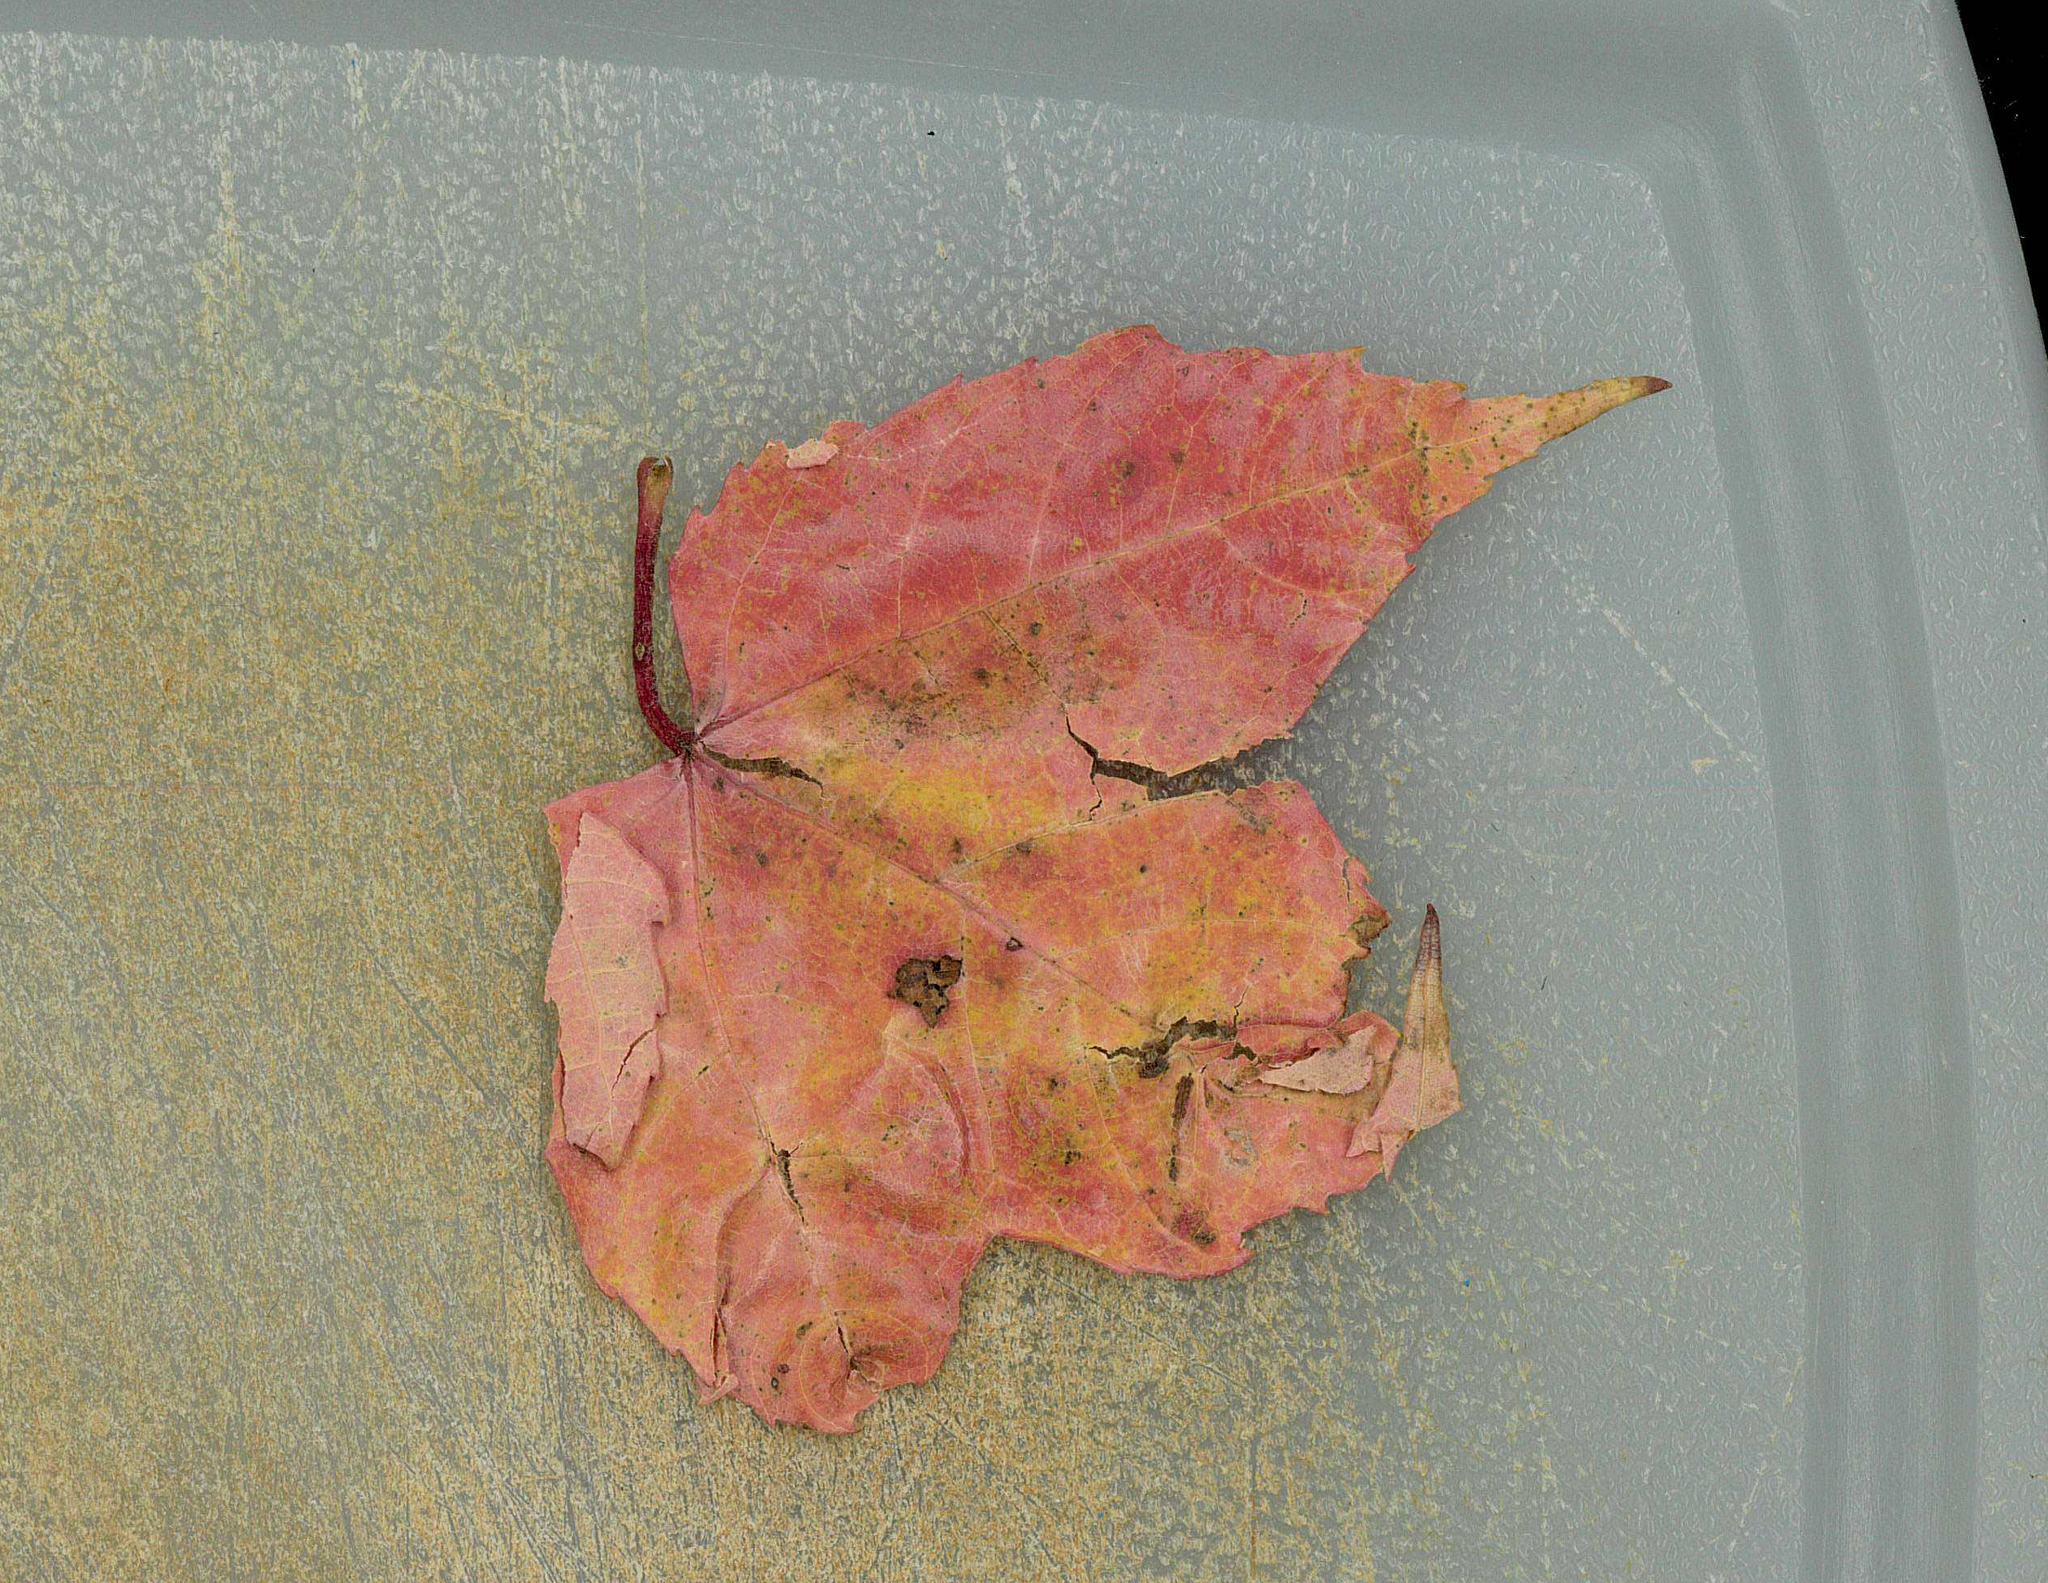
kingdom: Plantae
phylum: Tracheophyta
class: Magnoliopsida
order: Sapindales
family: Sapindaceae
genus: Acer
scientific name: Acer rubrum
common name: Red maple
